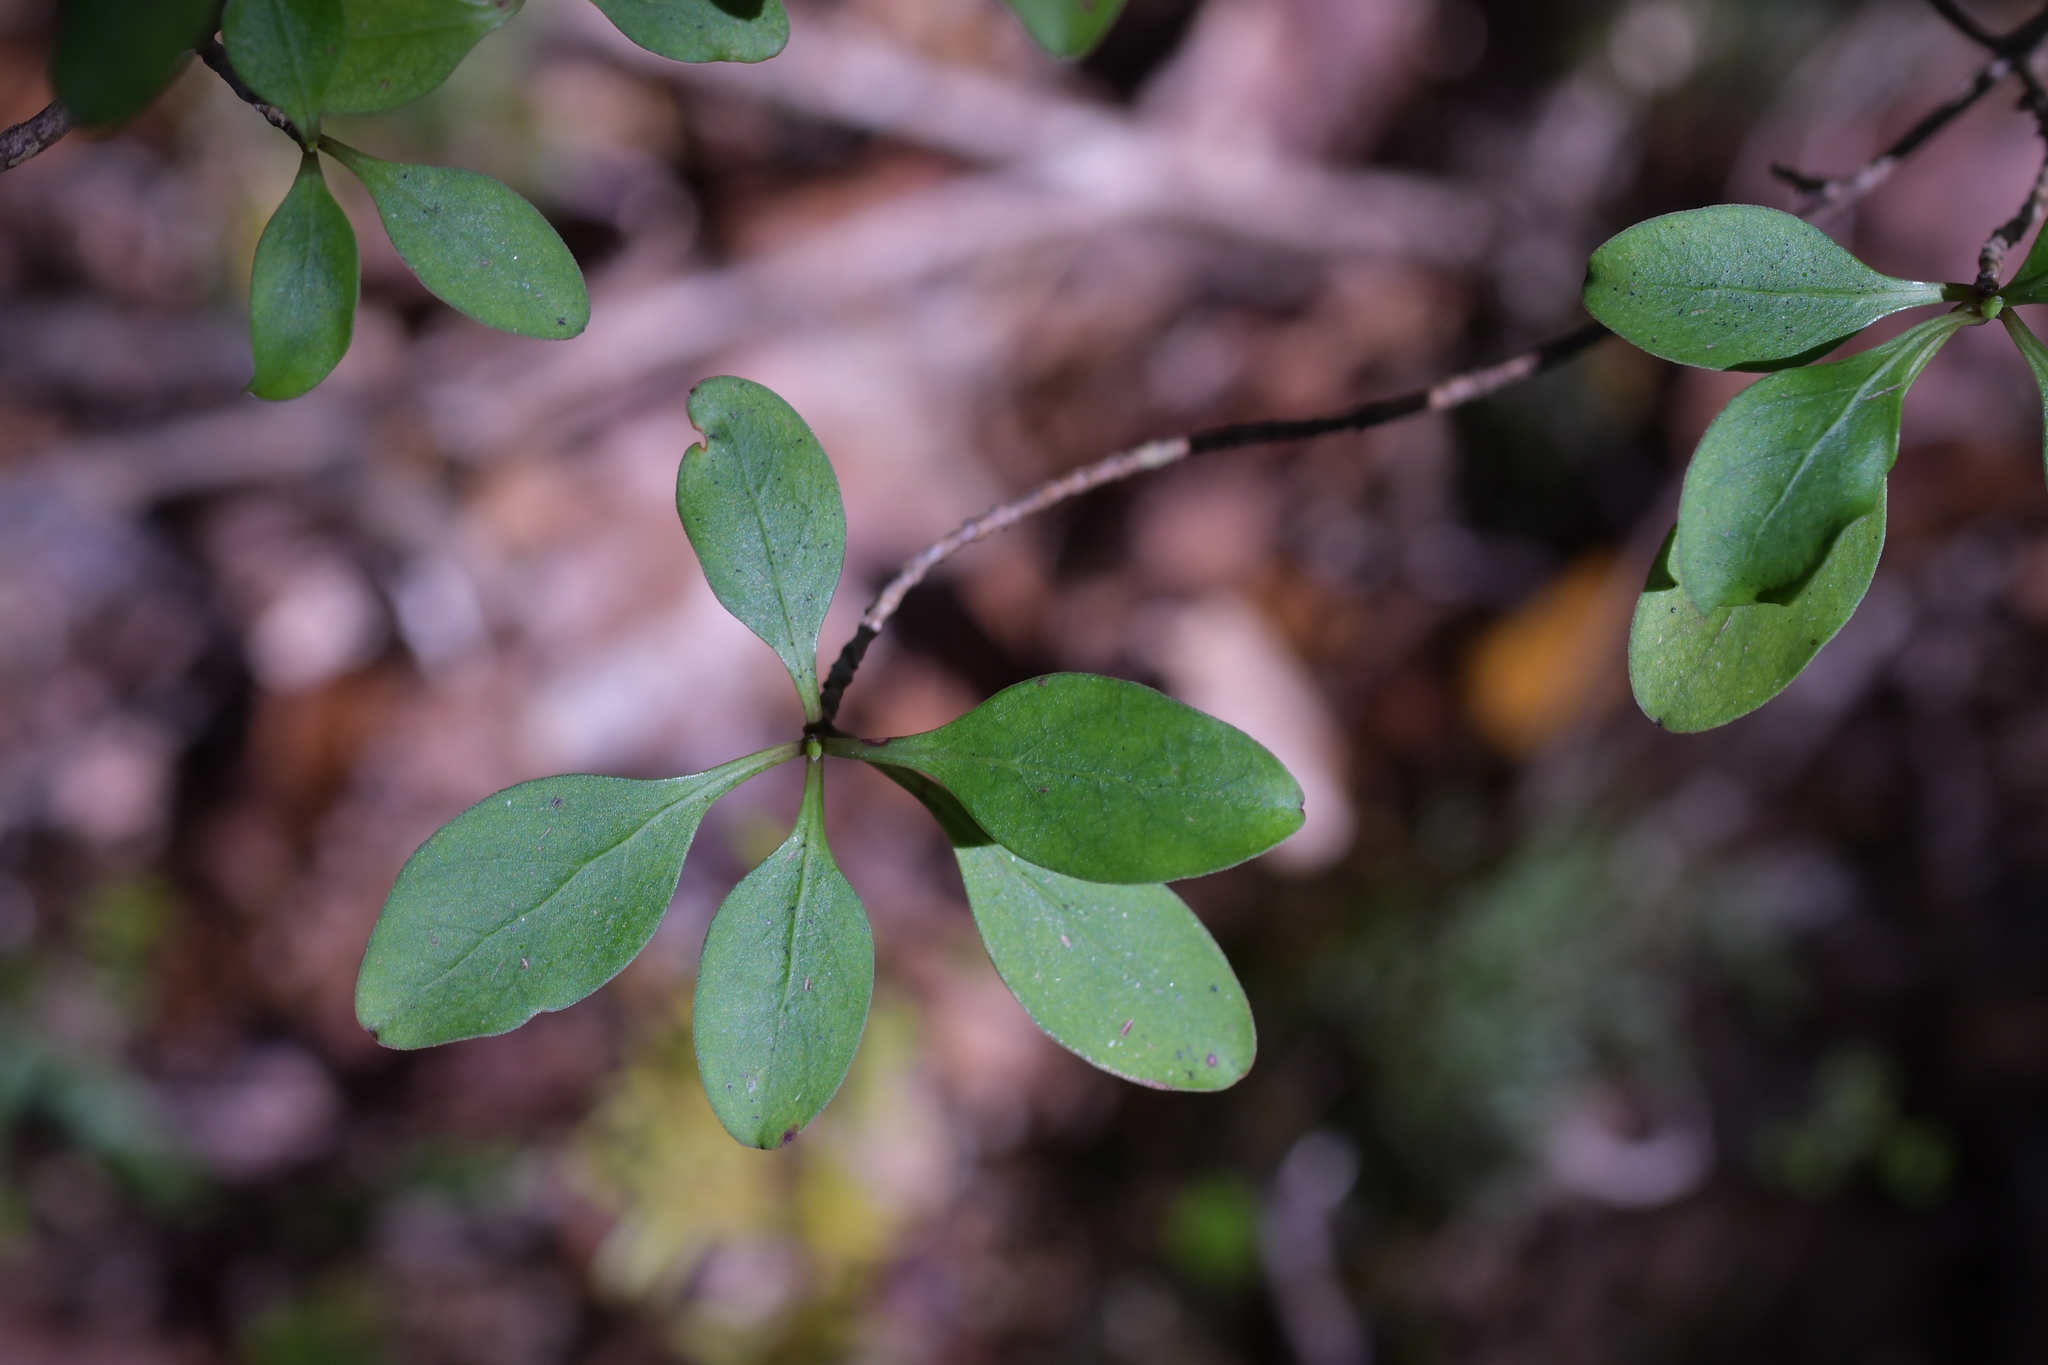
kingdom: Plantae
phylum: Tracheophyta
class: Magnoliopsida
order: Gentianales
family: Rubiaceae
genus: Coprosma
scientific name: Coprosma foetidissima
